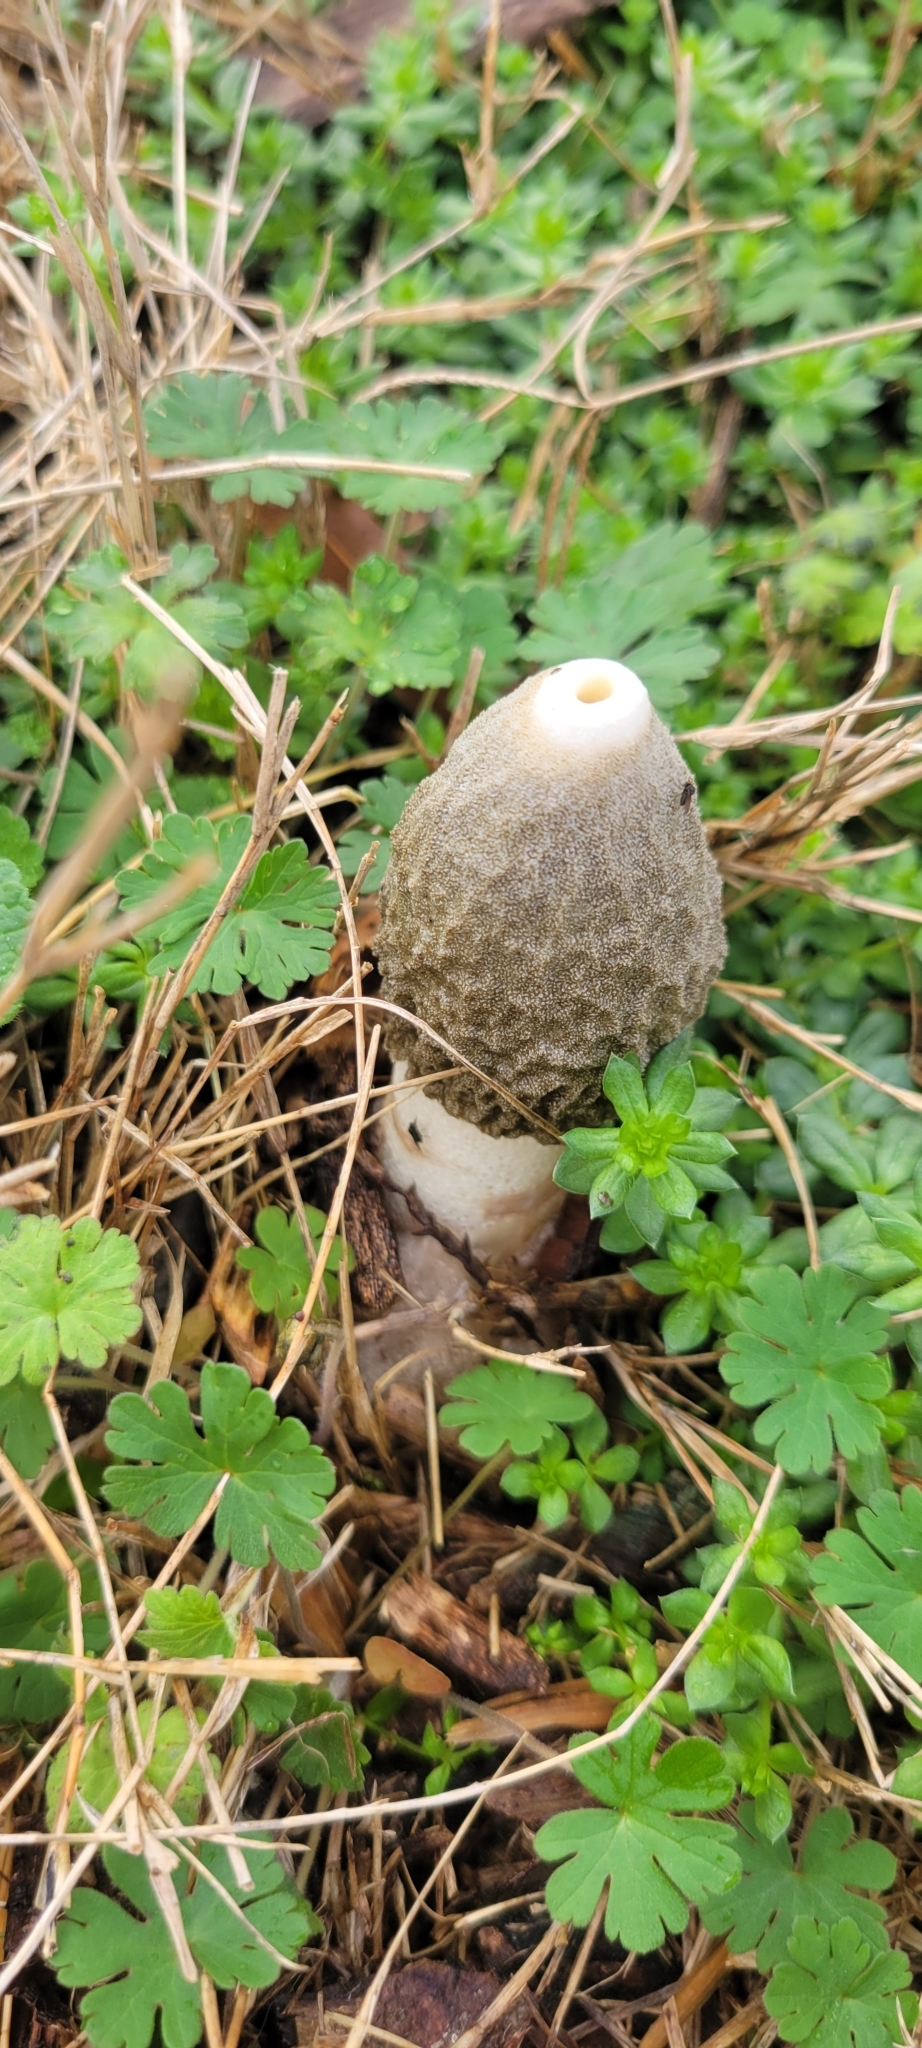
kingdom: Fungi
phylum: Basidiomycota
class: Agaricomycetes
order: Phallales
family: Phallaceae
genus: Phallus
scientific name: Phallus ravenelii
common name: Ravenel's stinkhorn
